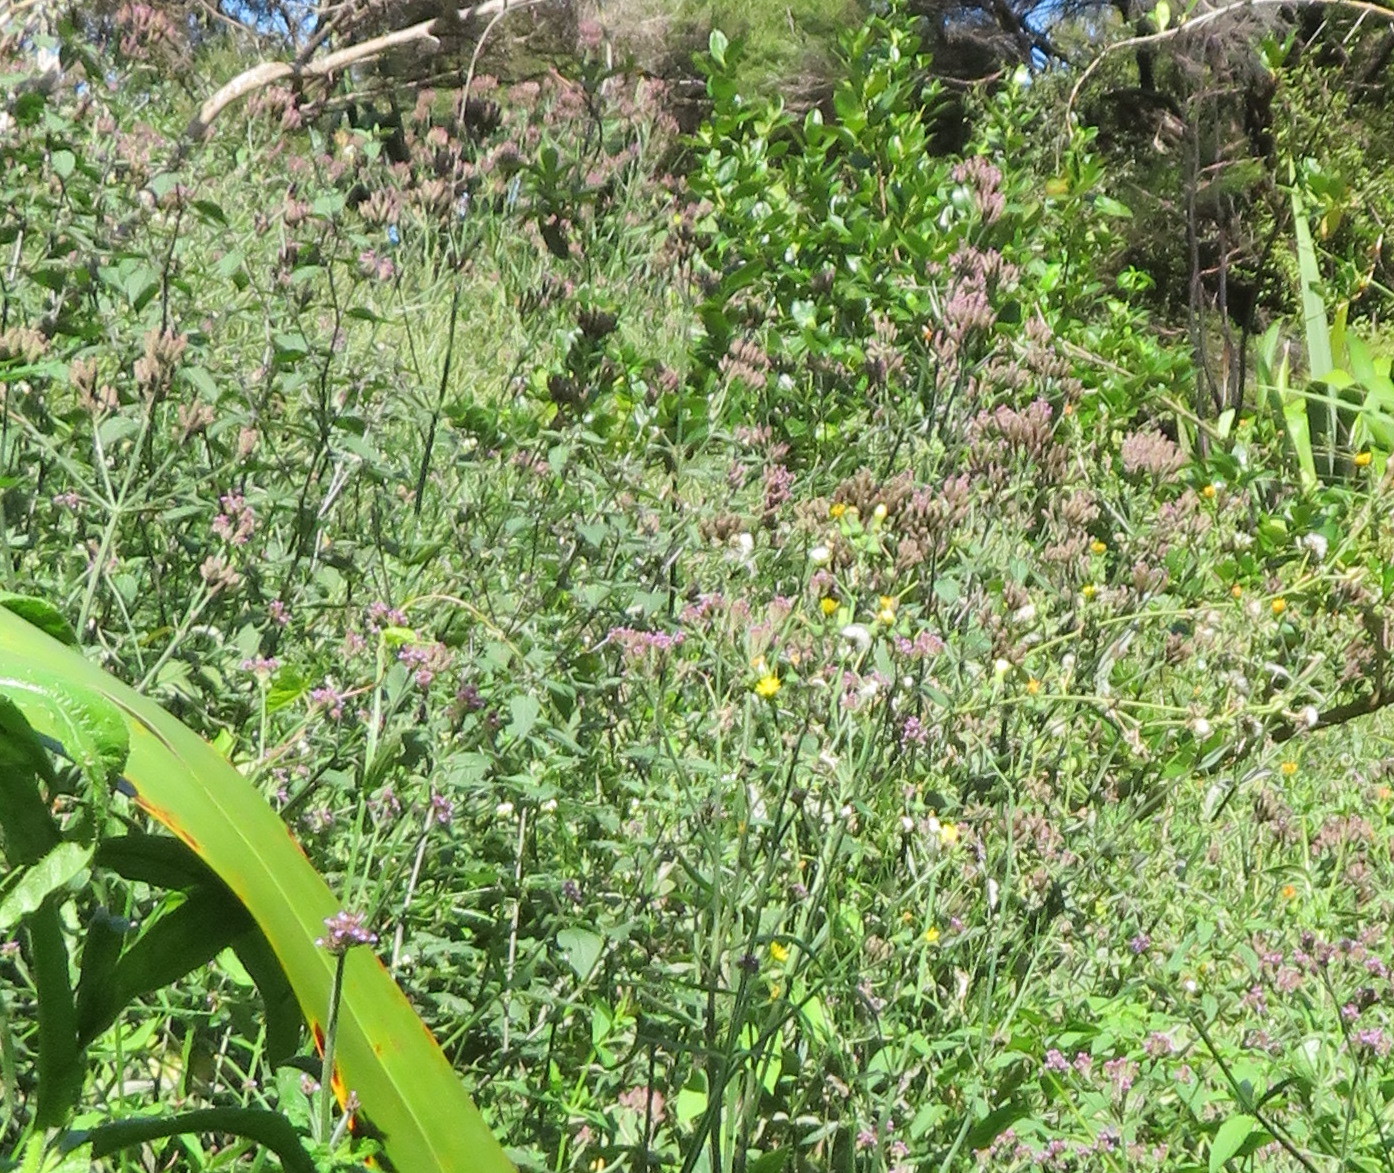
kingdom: Plantae
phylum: Tracheophyta
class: Magnoliopsida
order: Lamiales
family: Verbenaceae
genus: Verbena
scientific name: Verbena incompta
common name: Purpletop vervain
